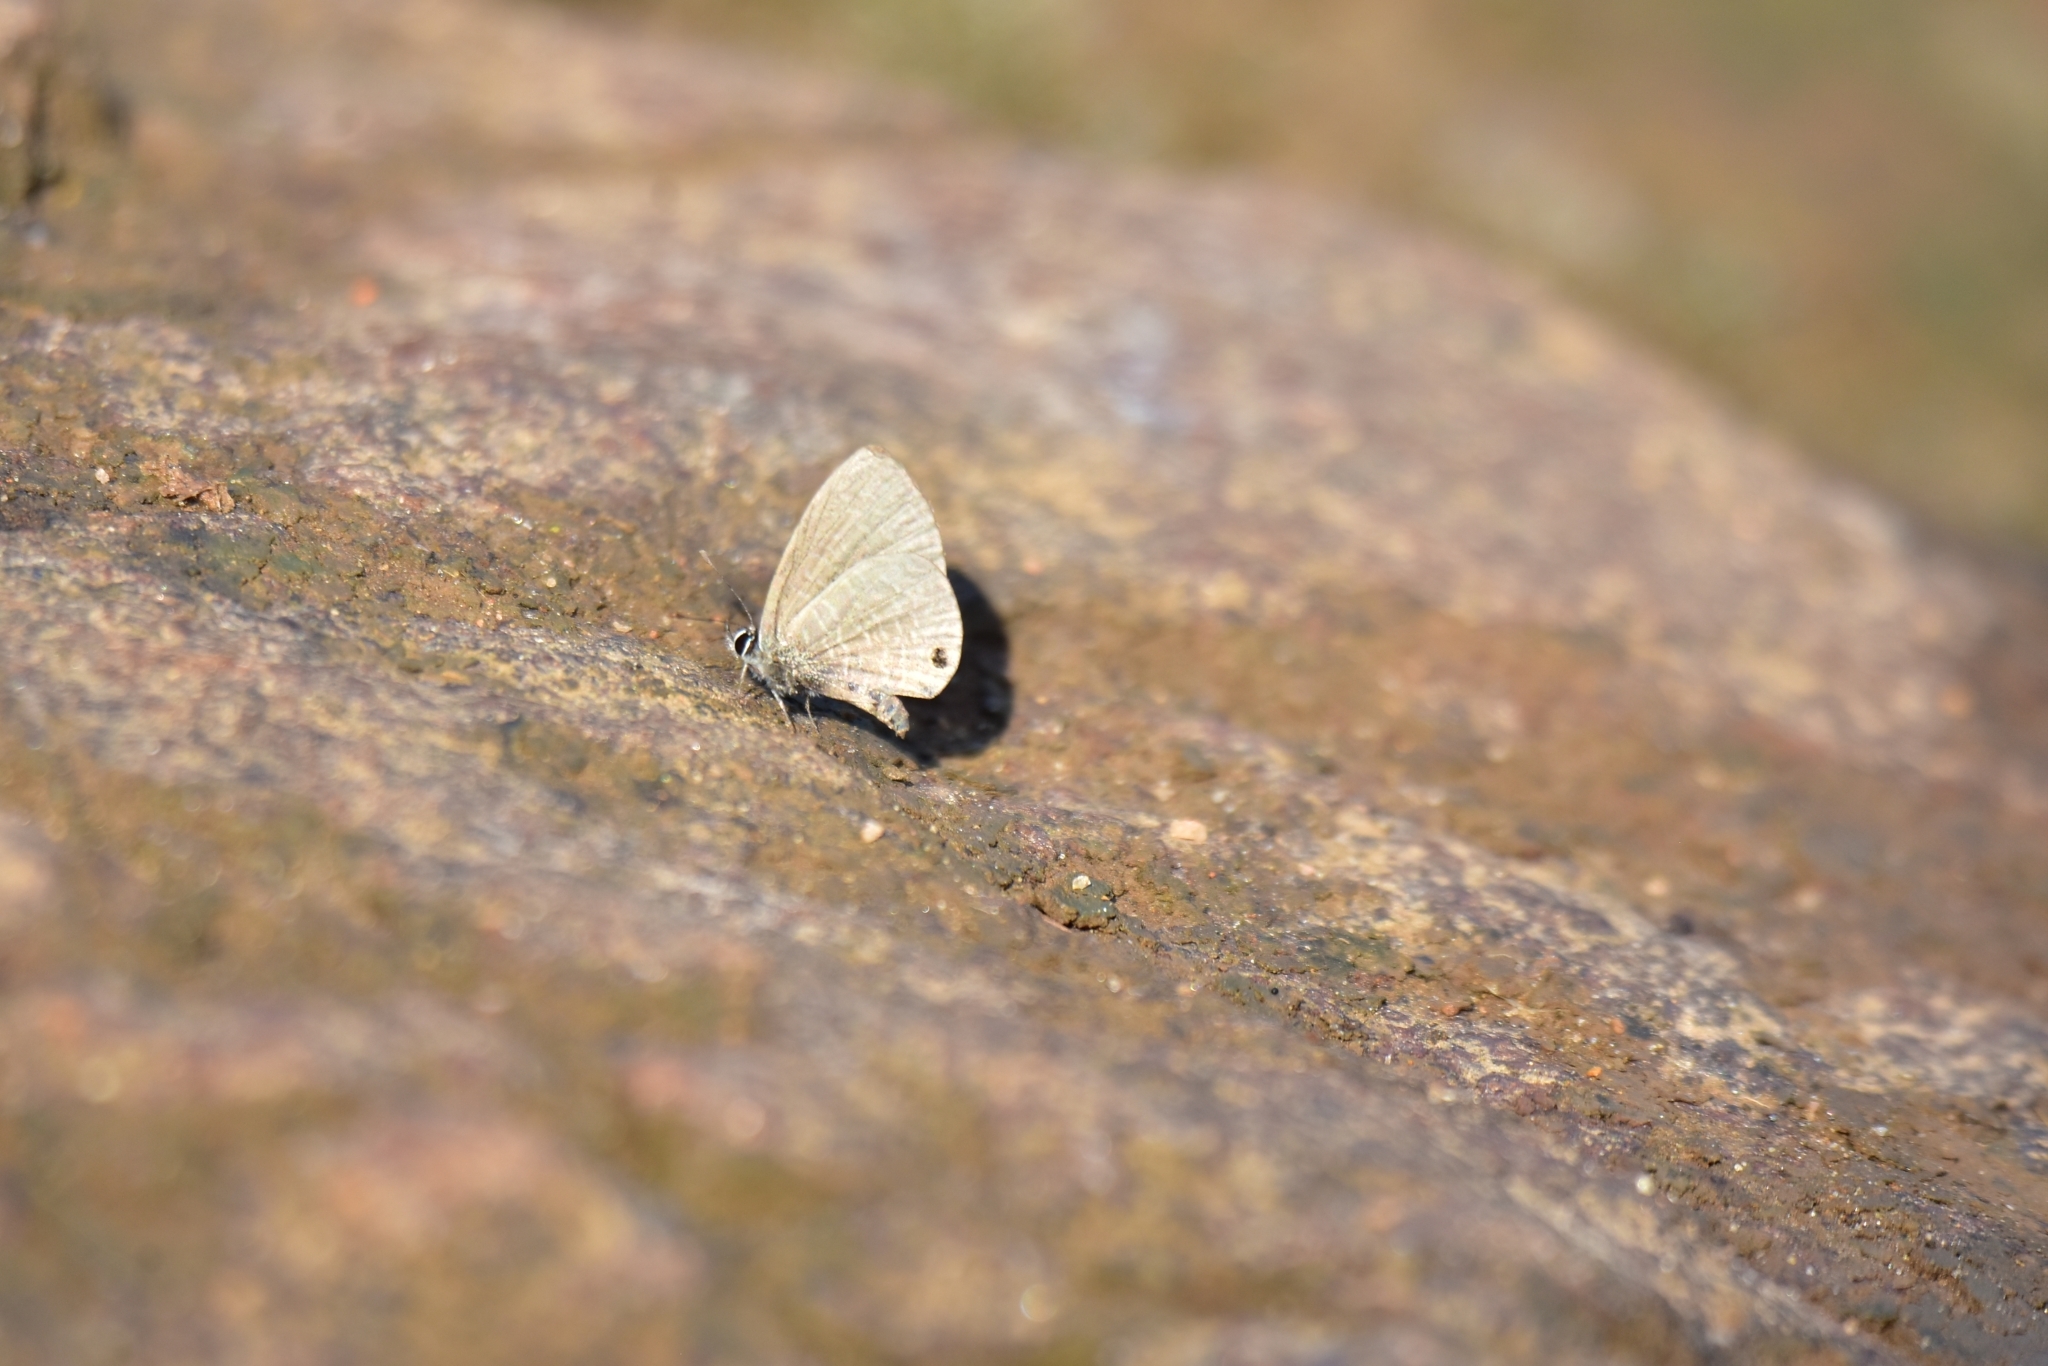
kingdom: Animalia
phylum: Arthropoda
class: Insecta
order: Lepidoptera
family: Lycaenidae
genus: Prosotas
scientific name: Prosotas nora
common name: Common line blue
